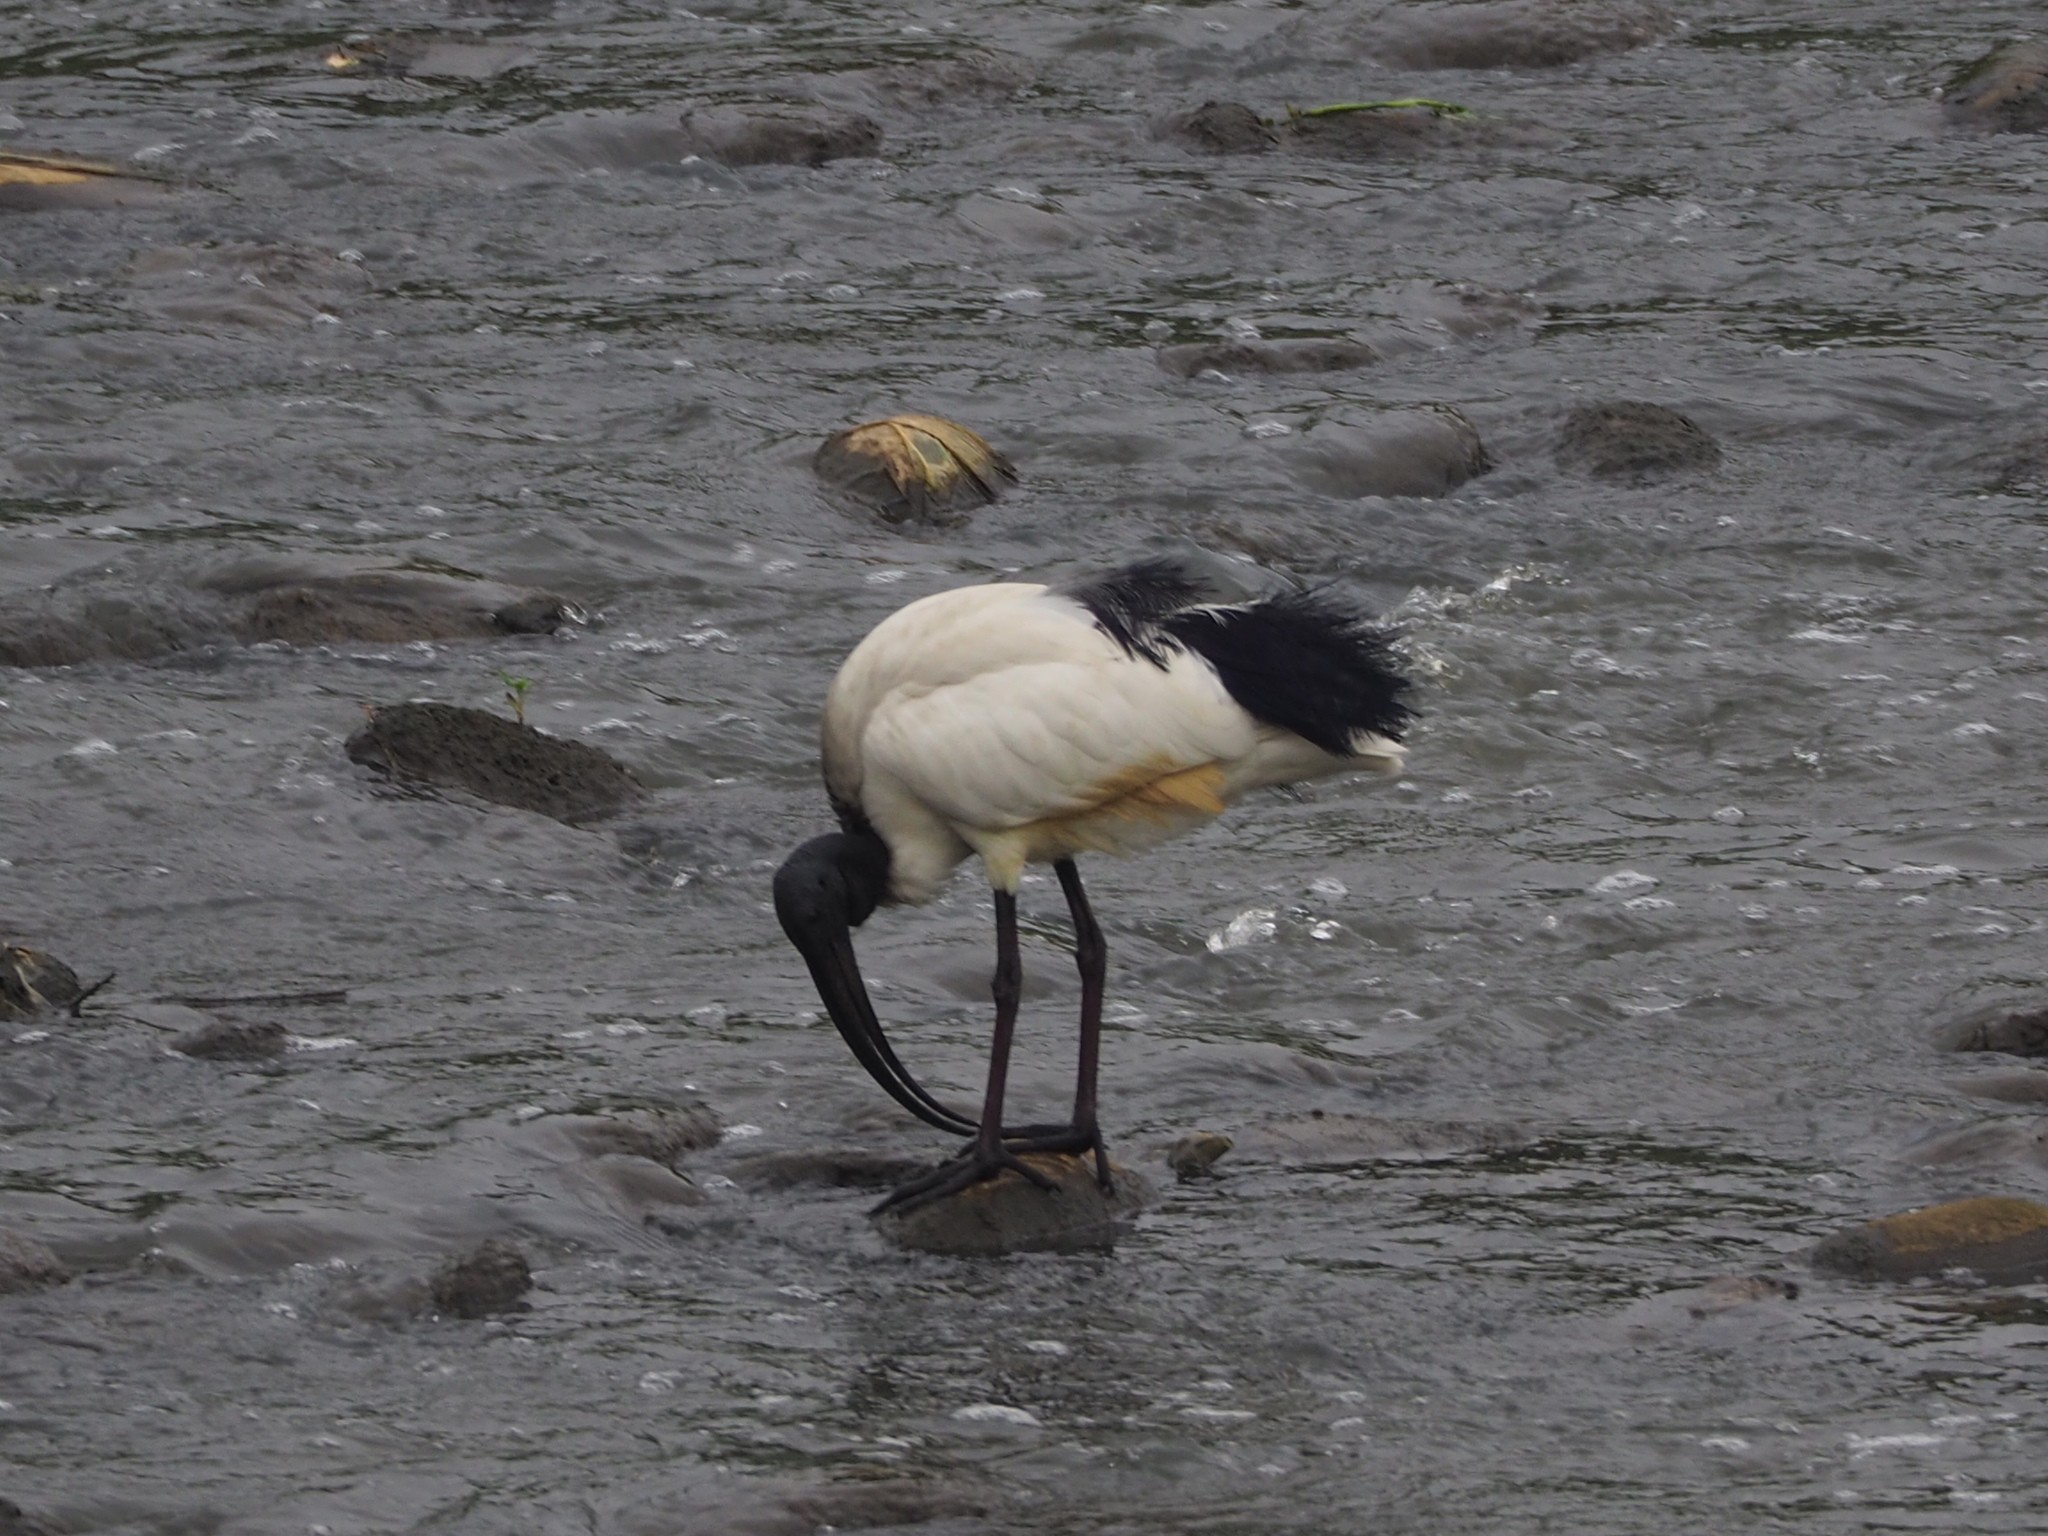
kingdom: Animalia
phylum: Chordata
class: Aves
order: Pelecaniformes
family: Threskiornithidae
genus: Threskiornis
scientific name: Threskiornis aethiopicus
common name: Sacred ibis
